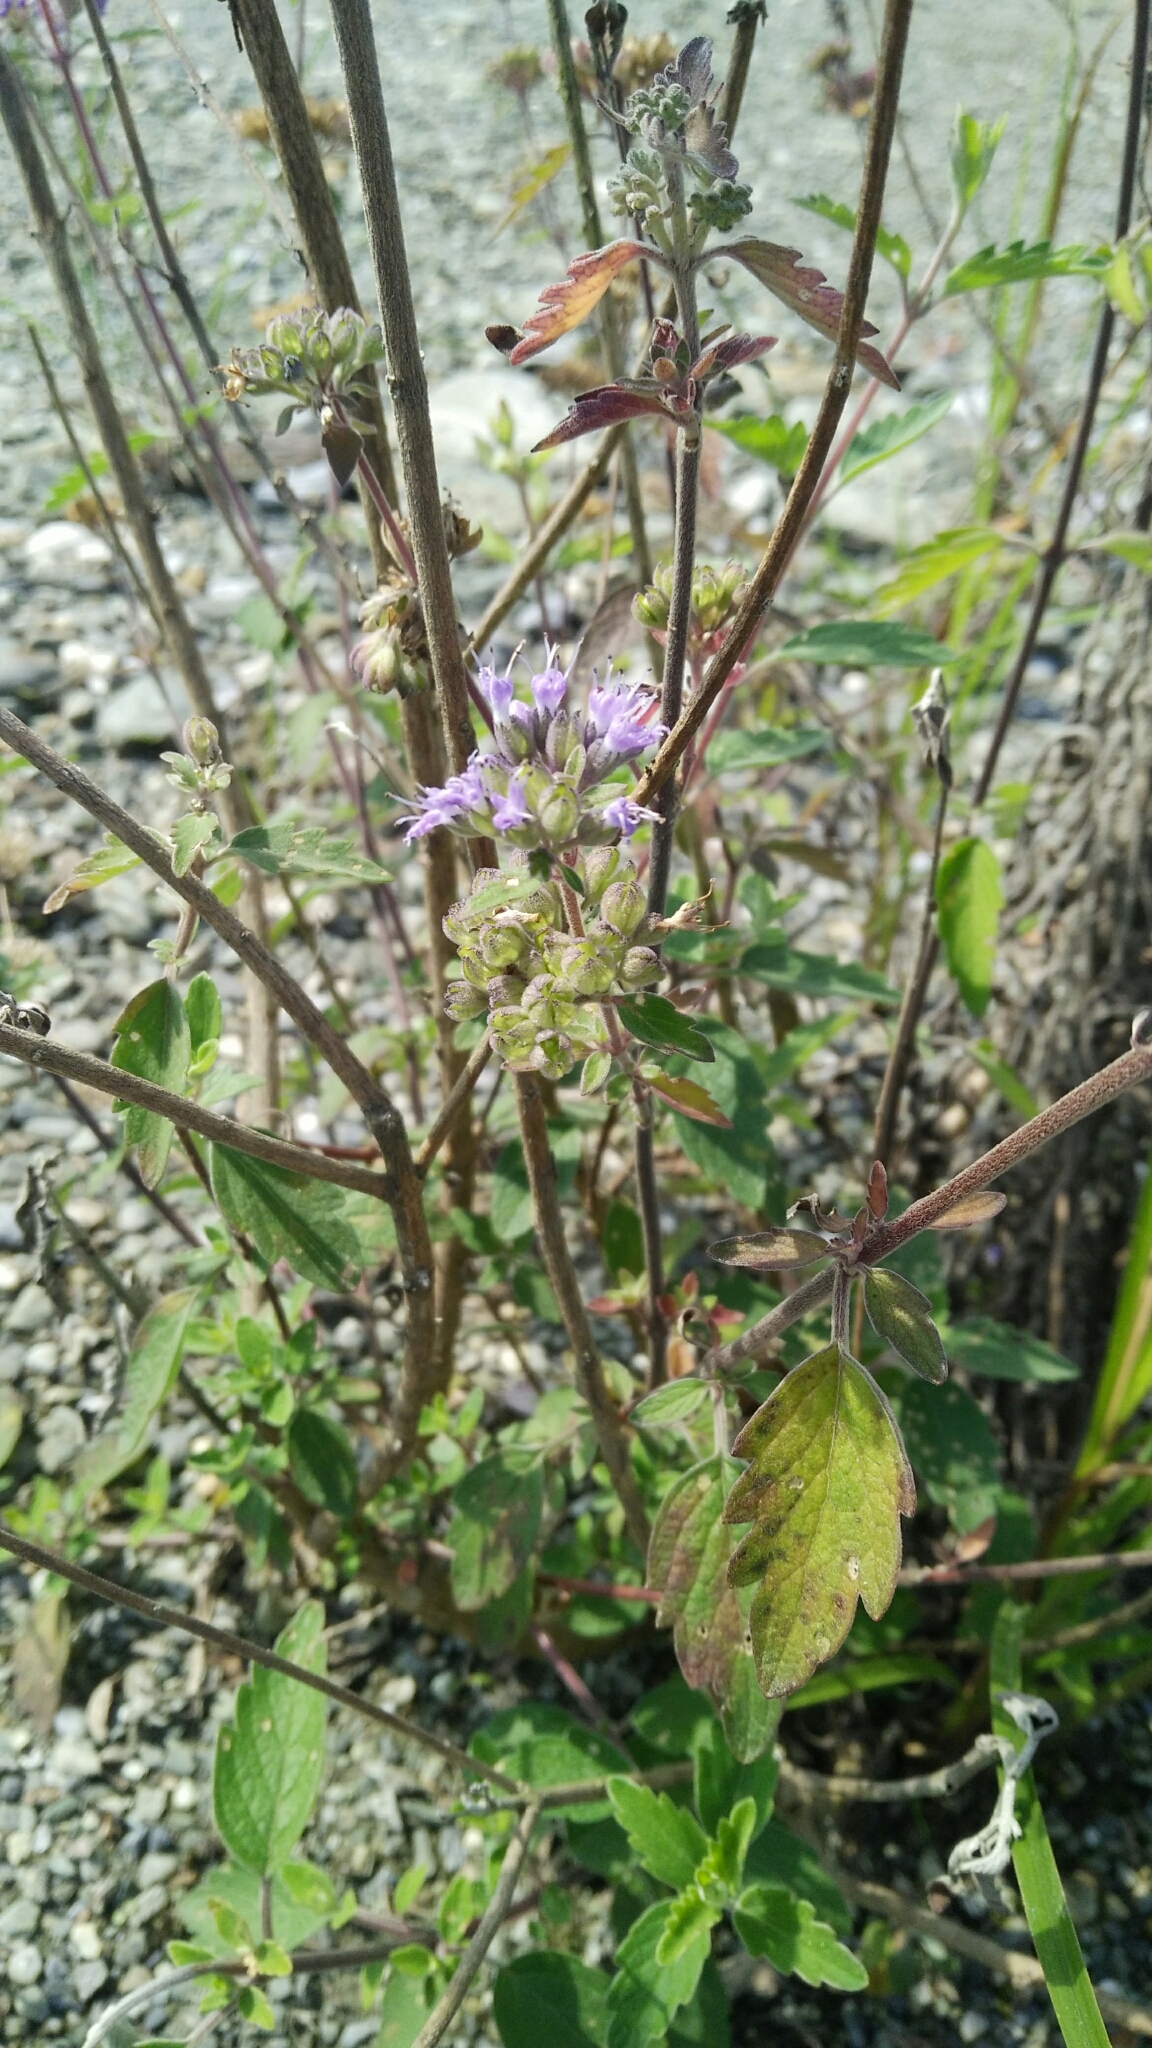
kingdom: Plantae
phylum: Tracheophyta
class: Magnoliopsida
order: Lamiales
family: Lamiaceae
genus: Caryopteris
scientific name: Caryopteris incana
